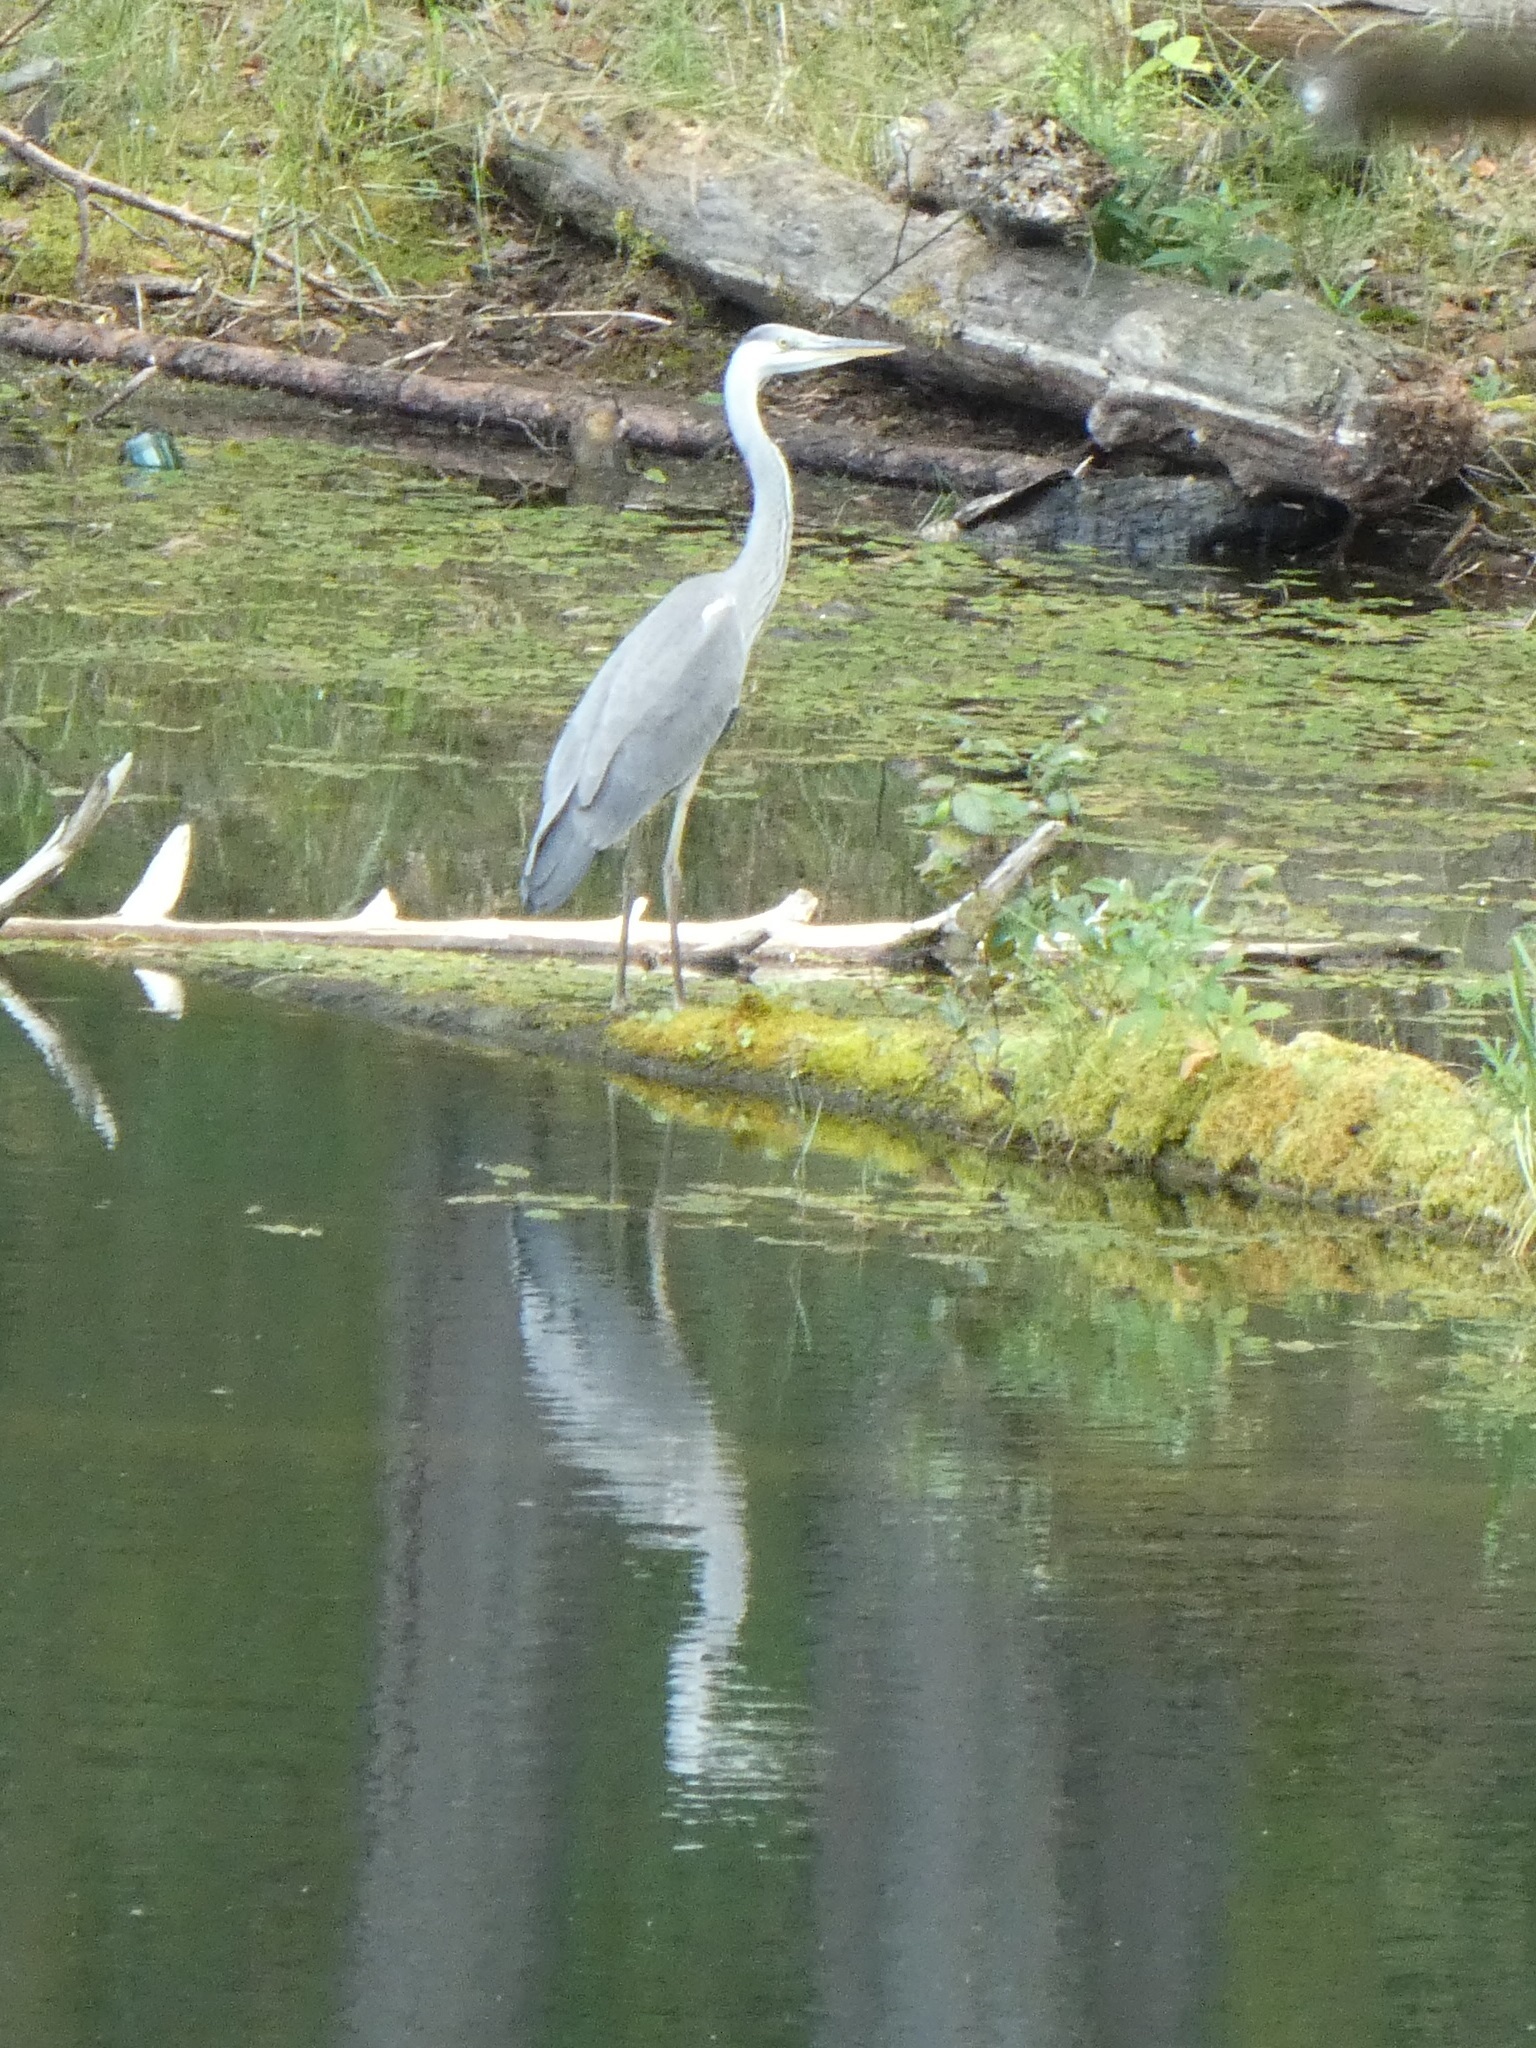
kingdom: Animalia
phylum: Chordata
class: Aves
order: Pelecaniformes
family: Ardeidae
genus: Ardea
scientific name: Ardea cinerea
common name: Grey heron
